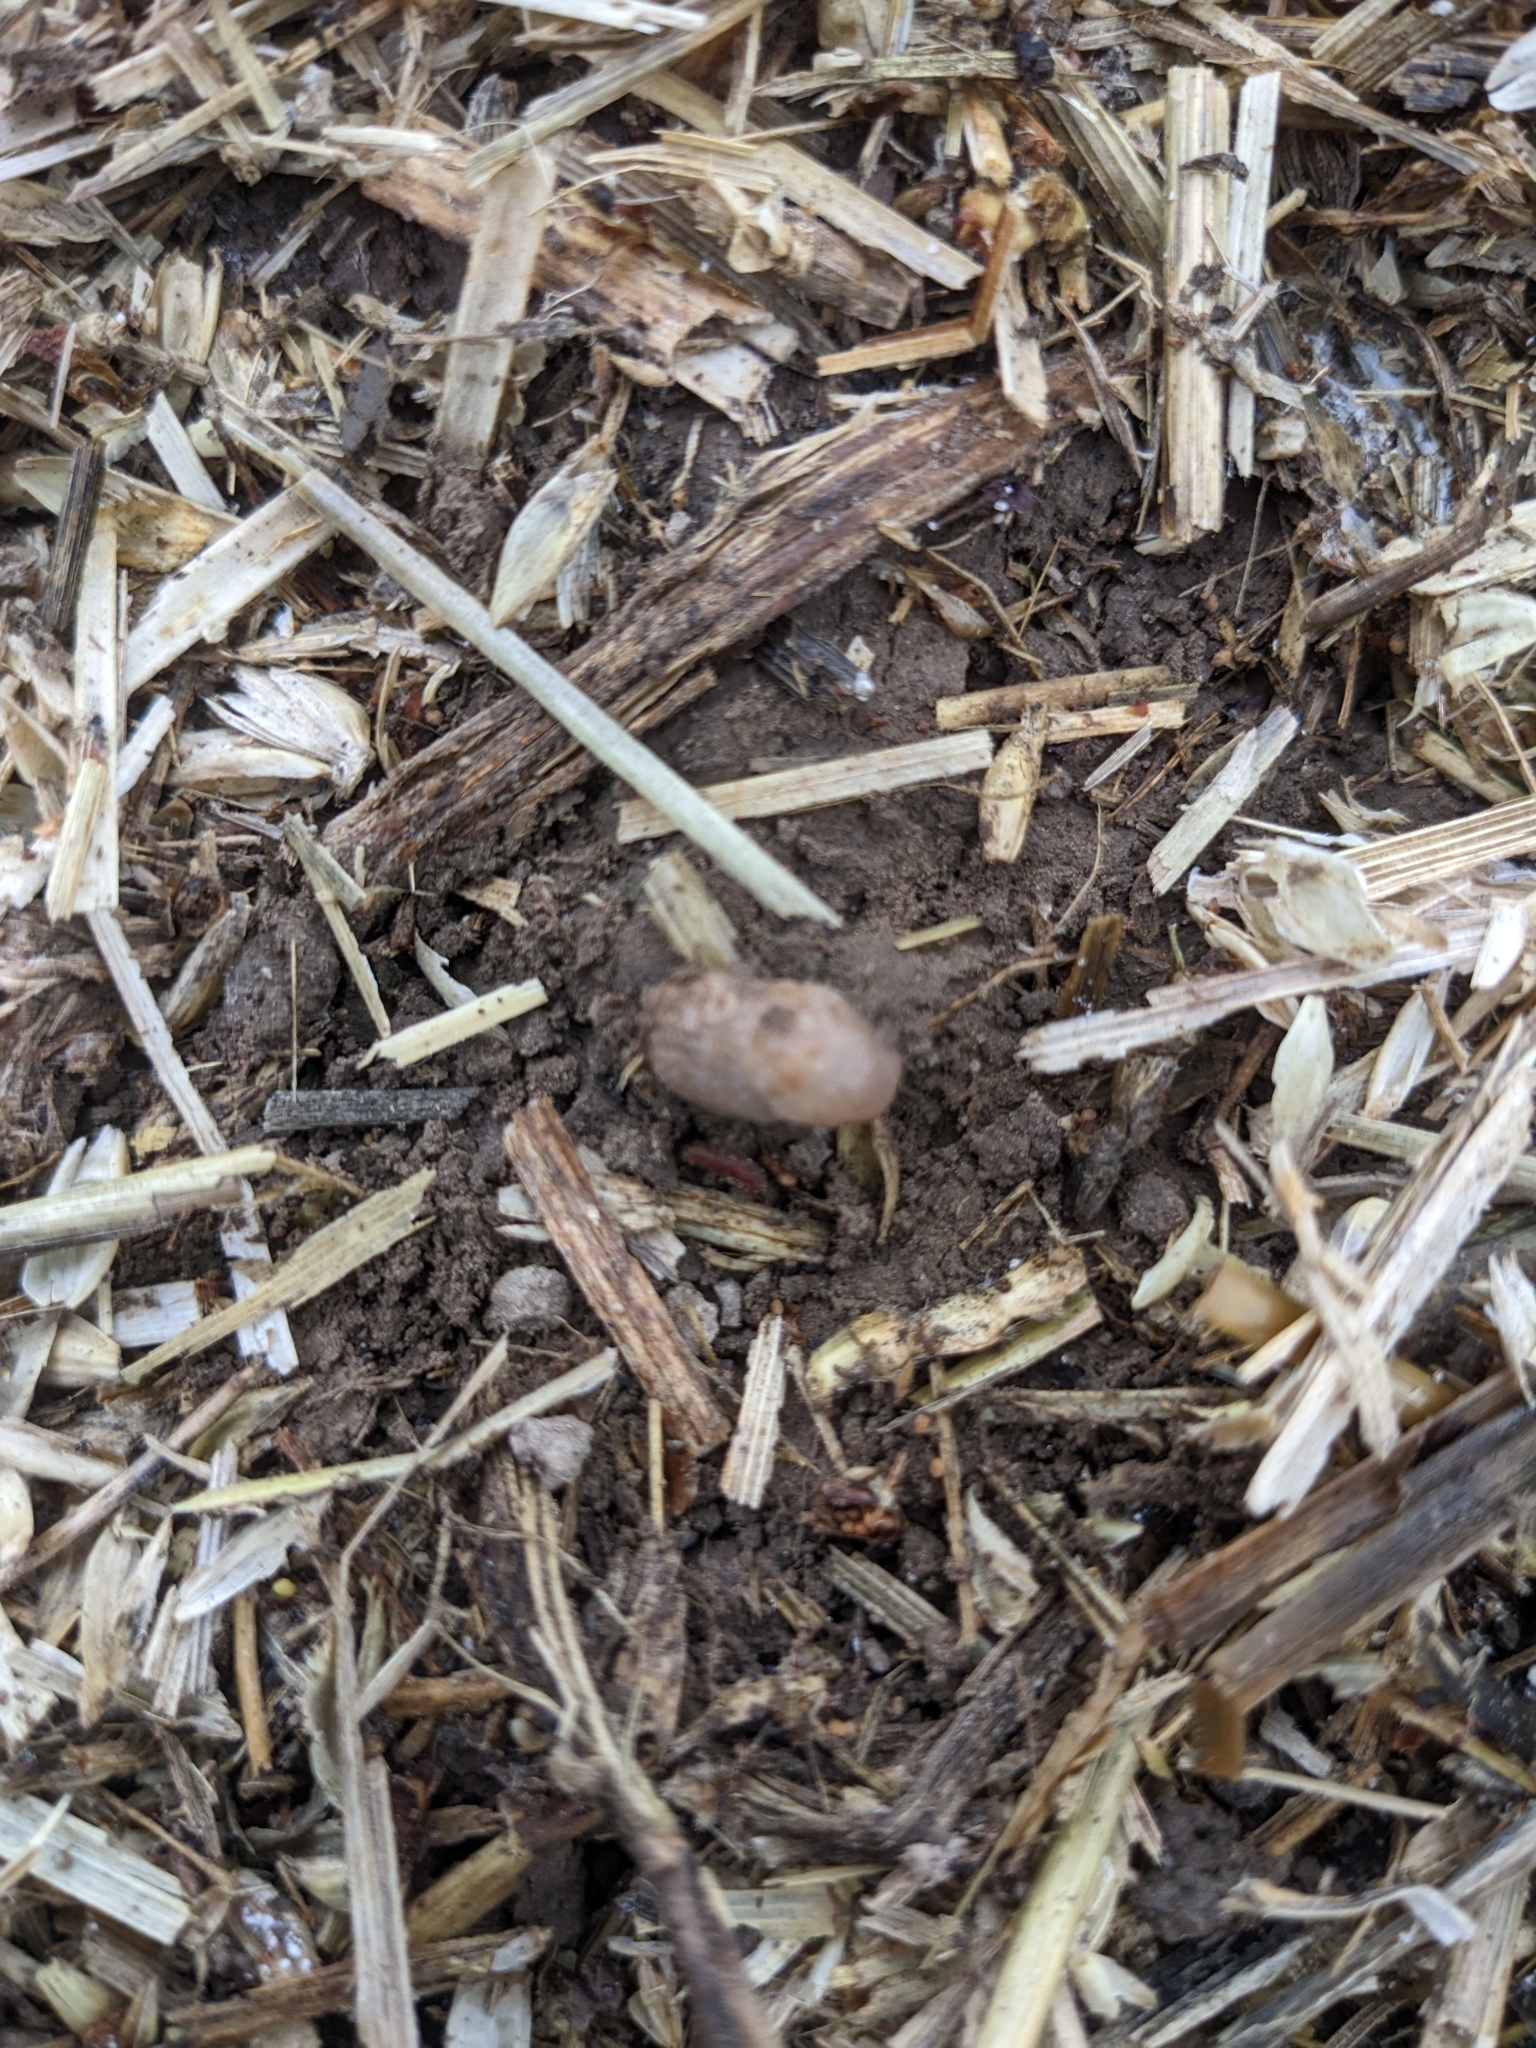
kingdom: Animalia
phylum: Mollusca
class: Gastropoda
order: Stylommatophora
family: Agriolimacidae
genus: Deroceras
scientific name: Deroceras reticulatum
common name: Gray field slug
